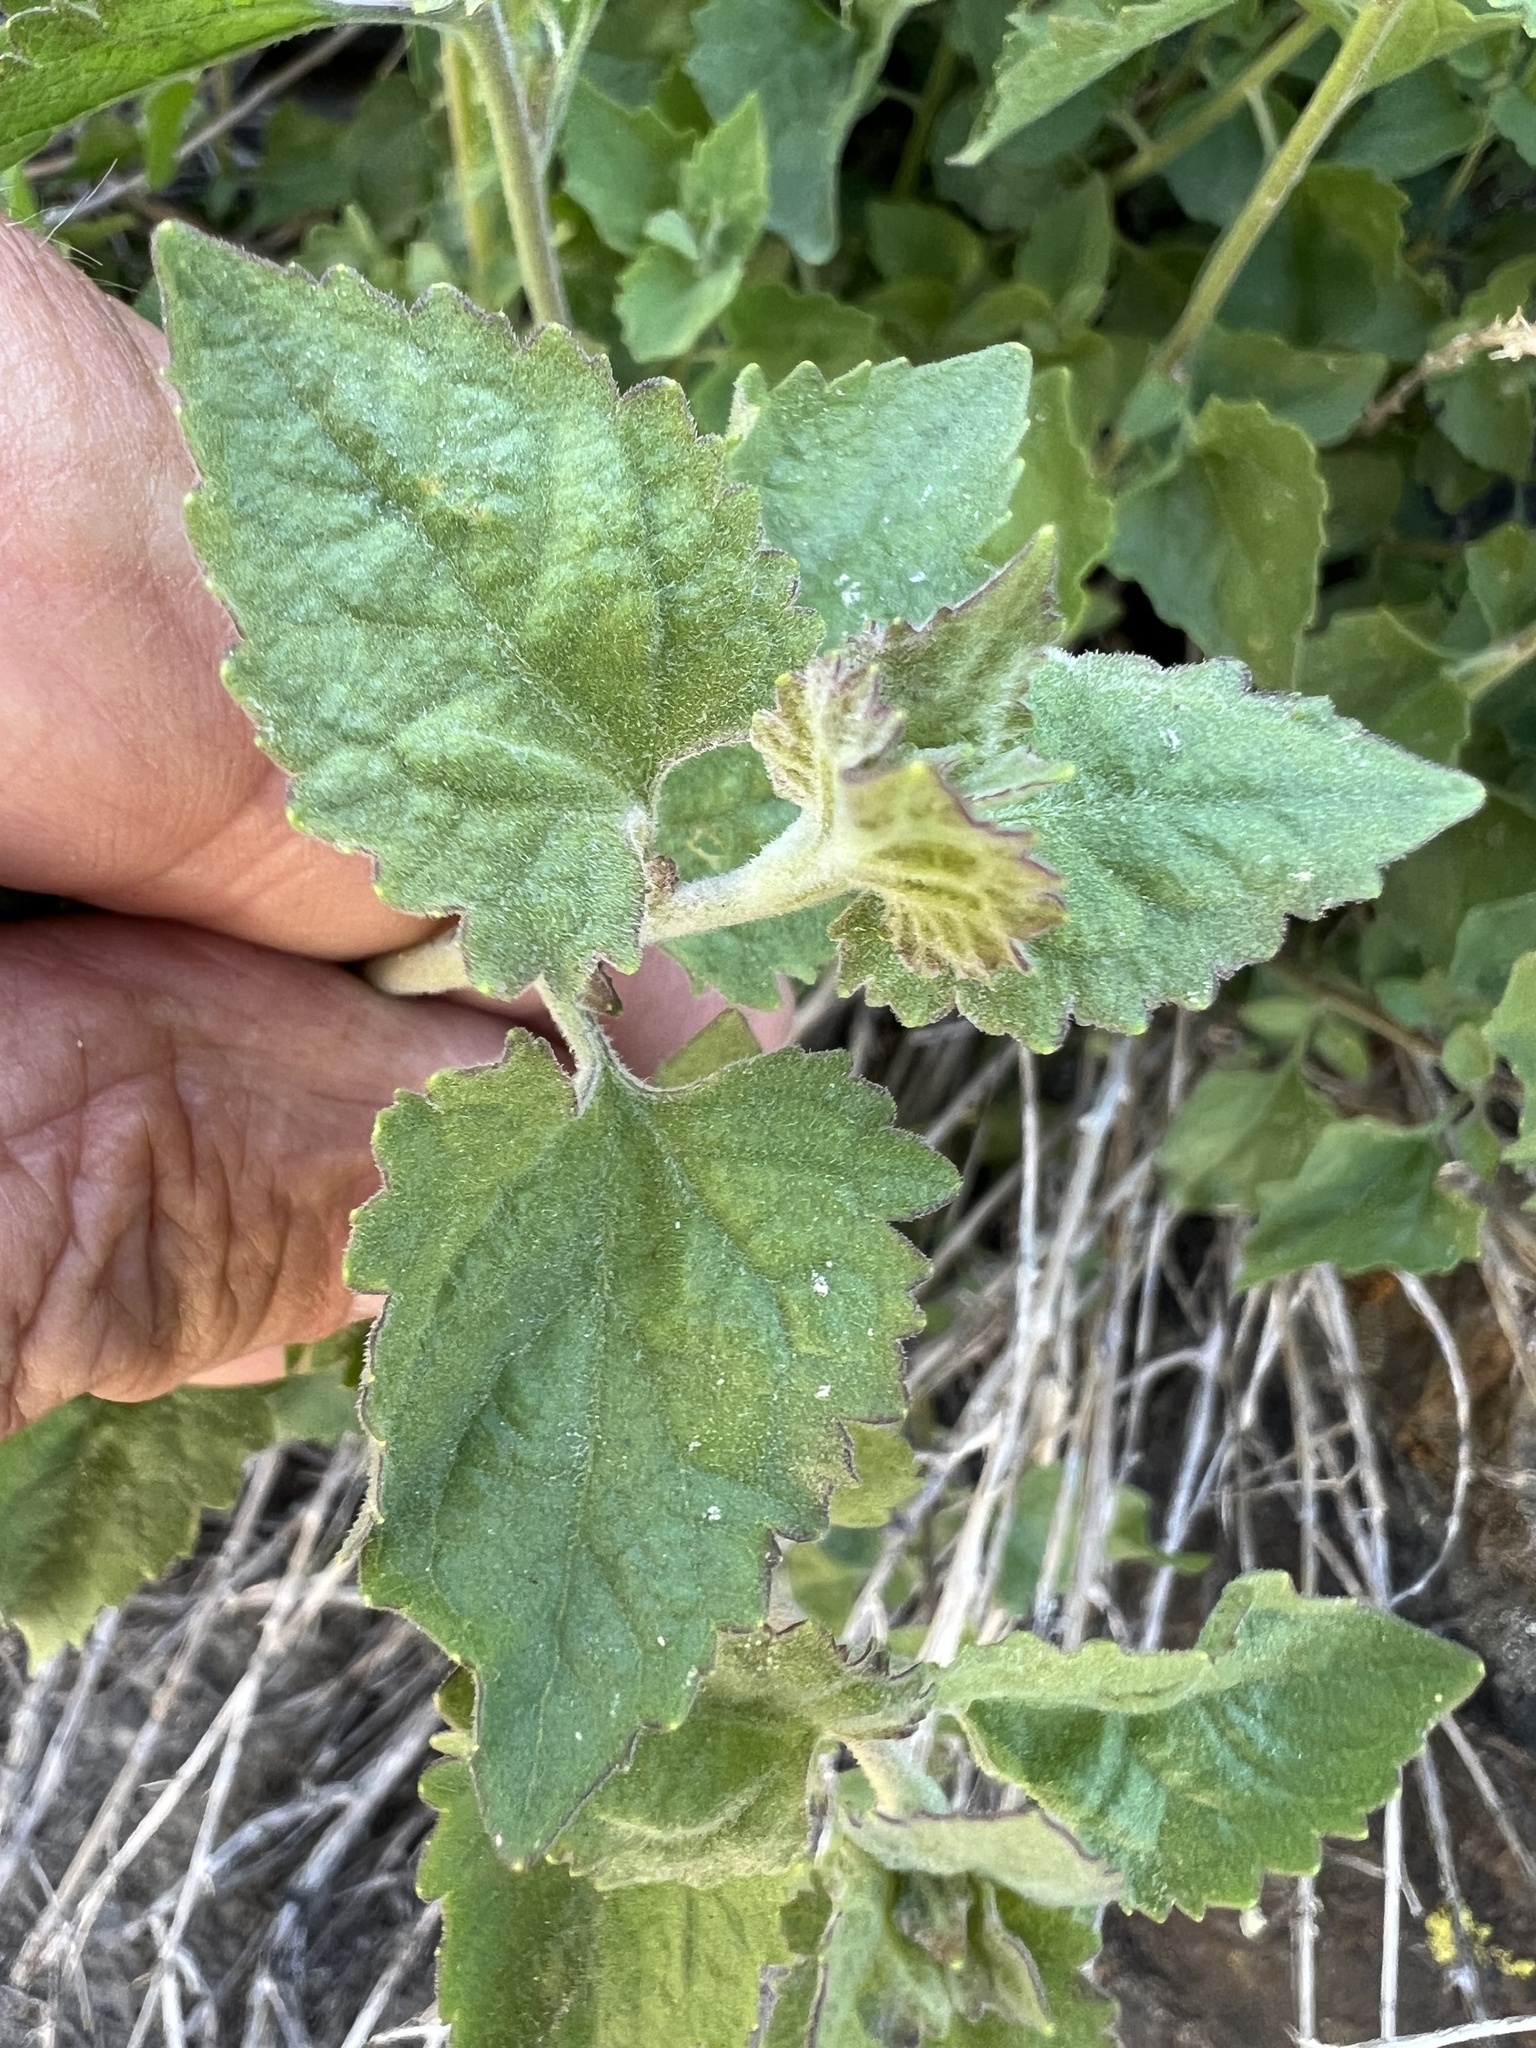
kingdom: Plantae
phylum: Tracheophyta
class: Magnoliopsida
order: Asterales
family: Asteraceae
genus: Brickellia
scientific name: Brickellia californica
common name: California brickellbush
